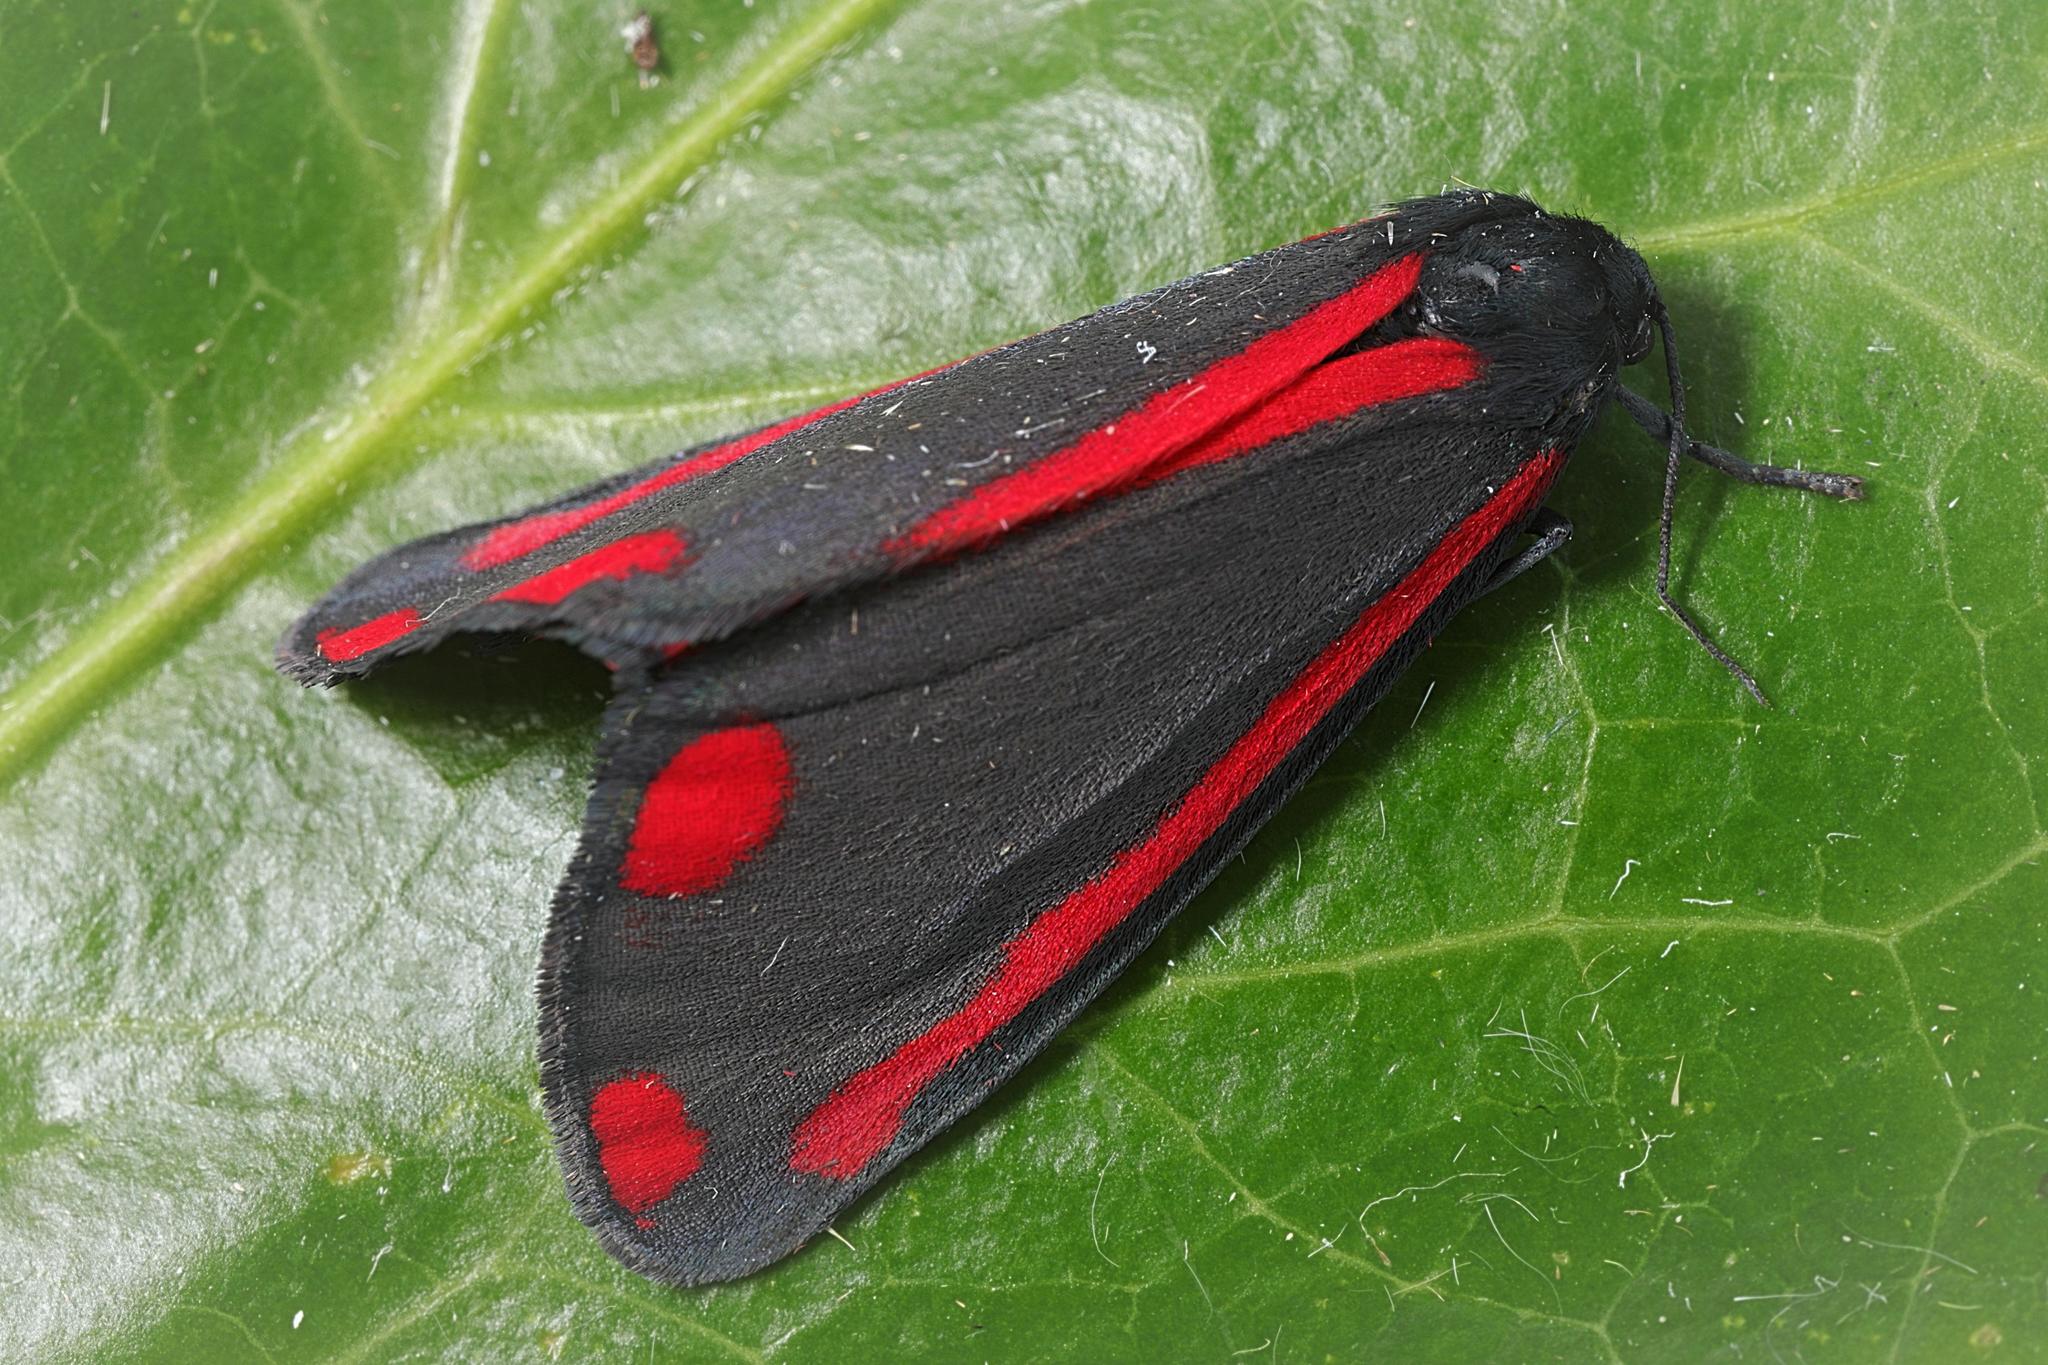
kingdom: Animalia
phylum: Arthropoda
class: Insecta
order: Lepidoptera
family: Erebidae
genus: Tyria
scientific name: Tyria jacobaeae
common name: Cinnabar
